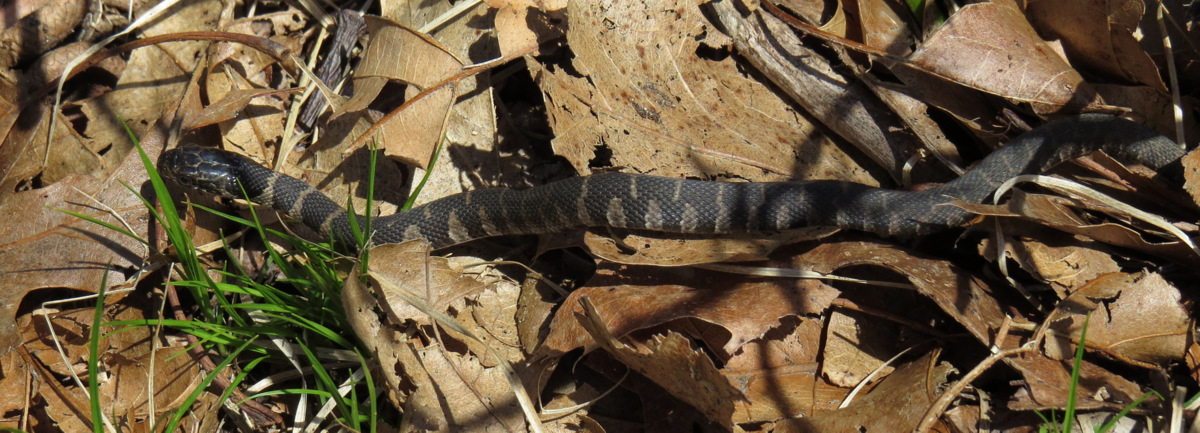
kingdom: Animalia
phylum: Chordata
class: Squamata
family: Colubridae
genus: Nerodia
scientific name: Nerodia sipedon
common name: Northern water snake
